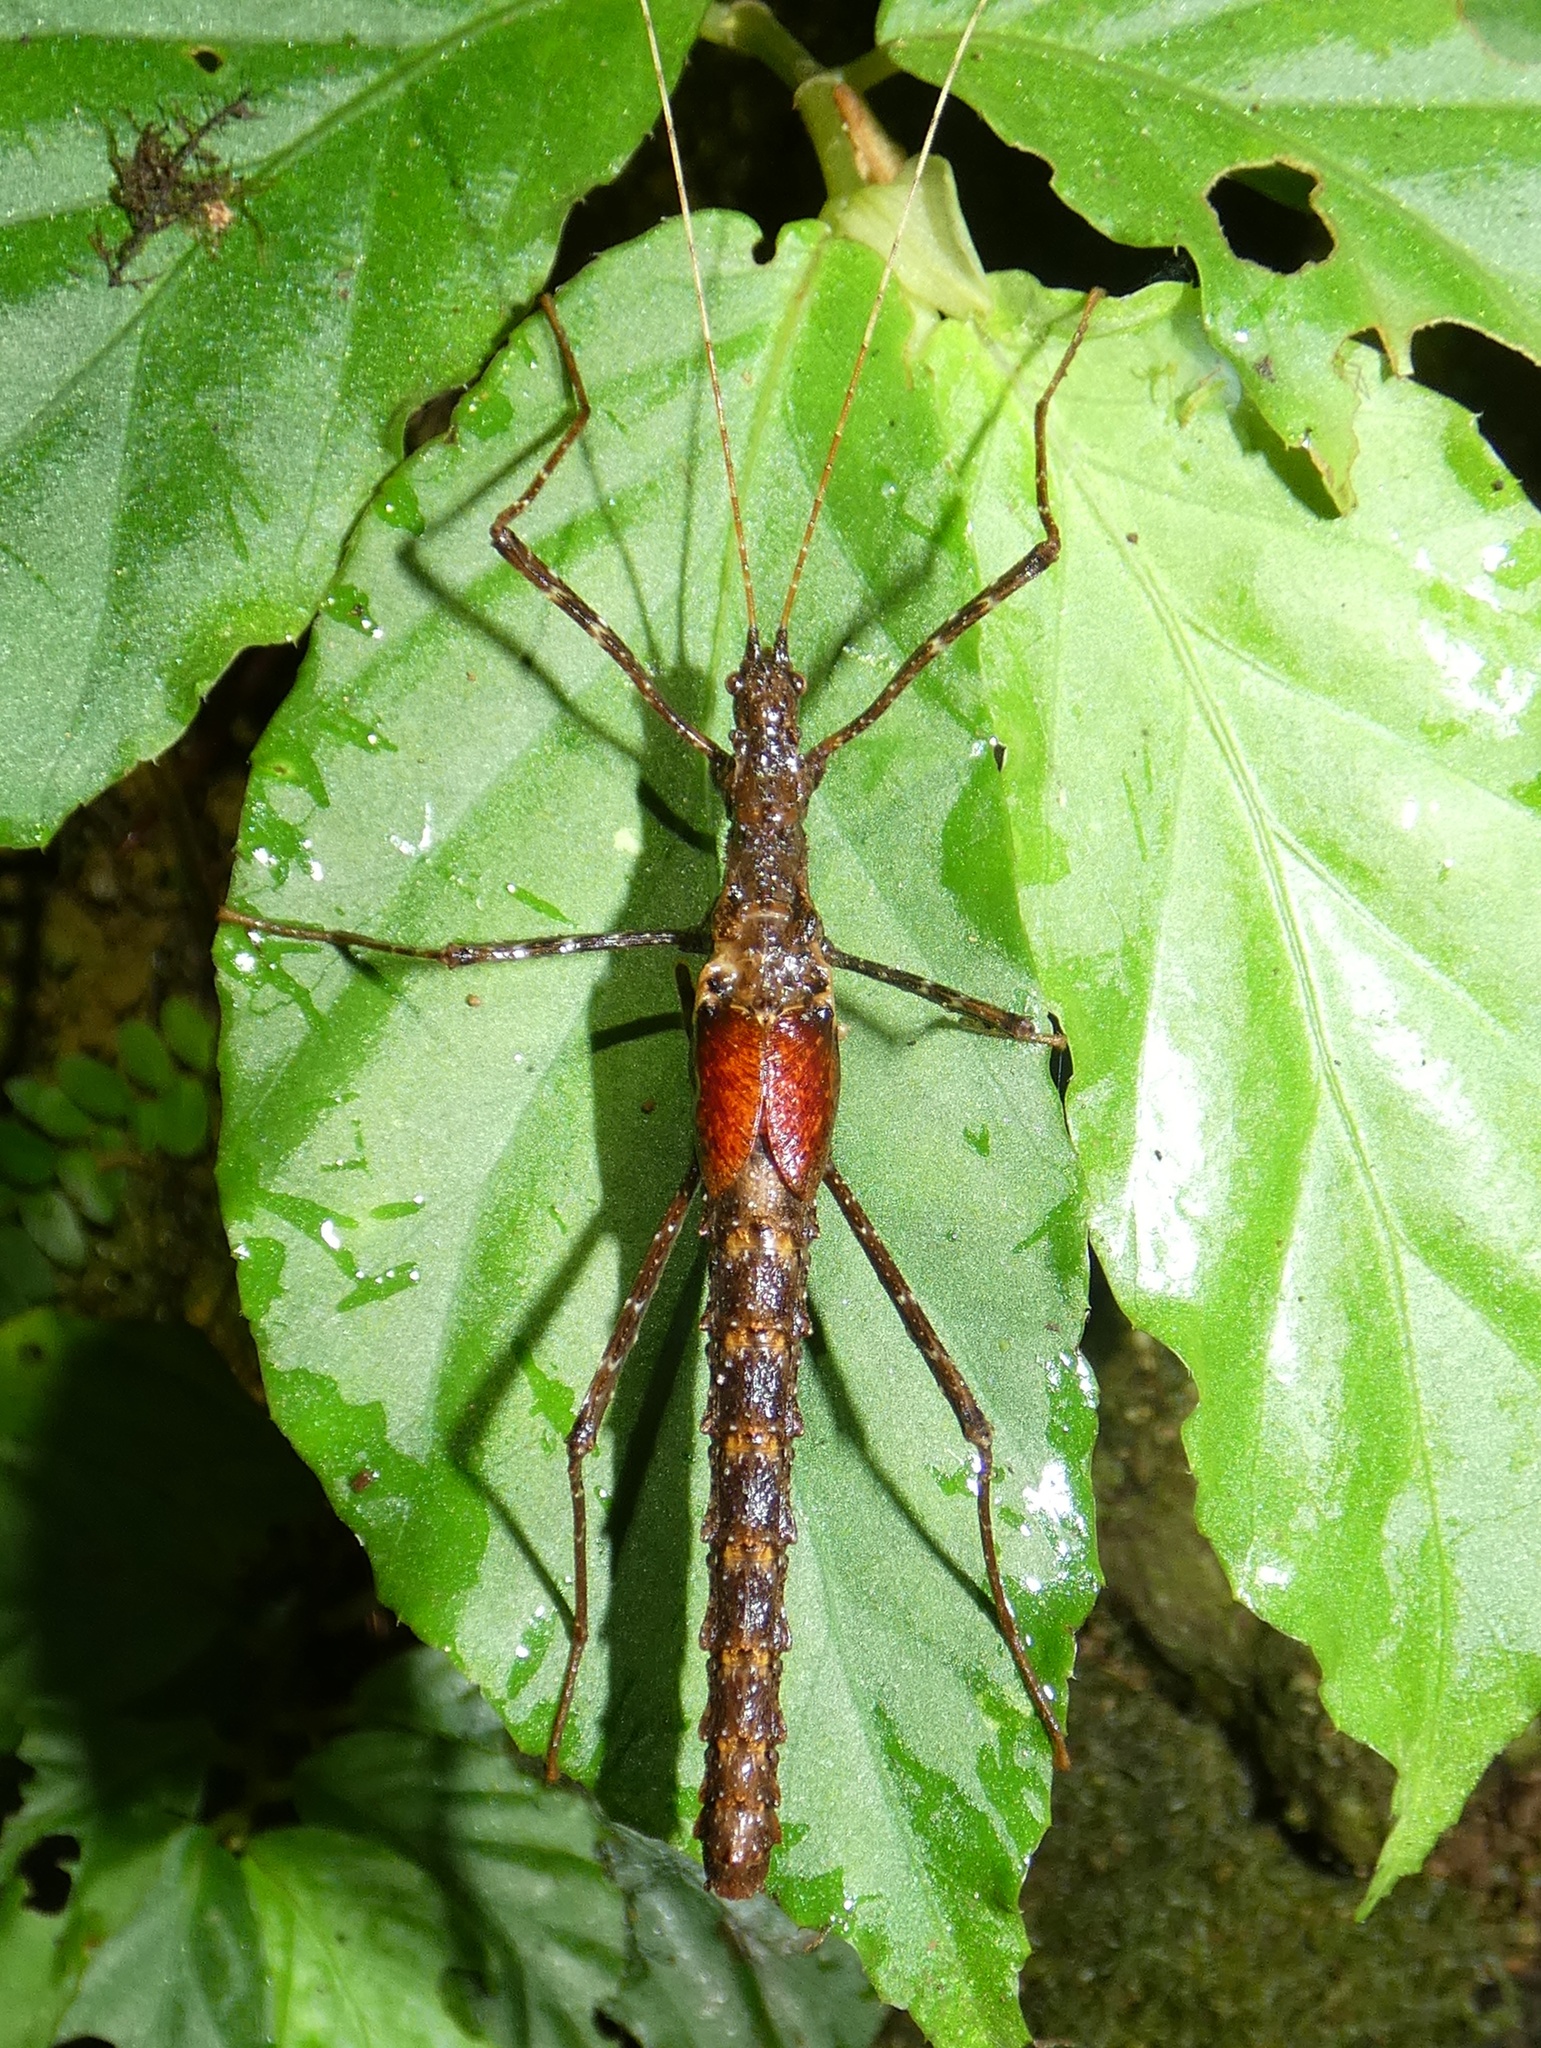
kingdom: Animalia
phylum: Arthropoda
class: Insecta
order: Phasmida
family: Pseudophasmatidae
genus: Pseudophasma
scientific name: Pseudophasma unicolor
